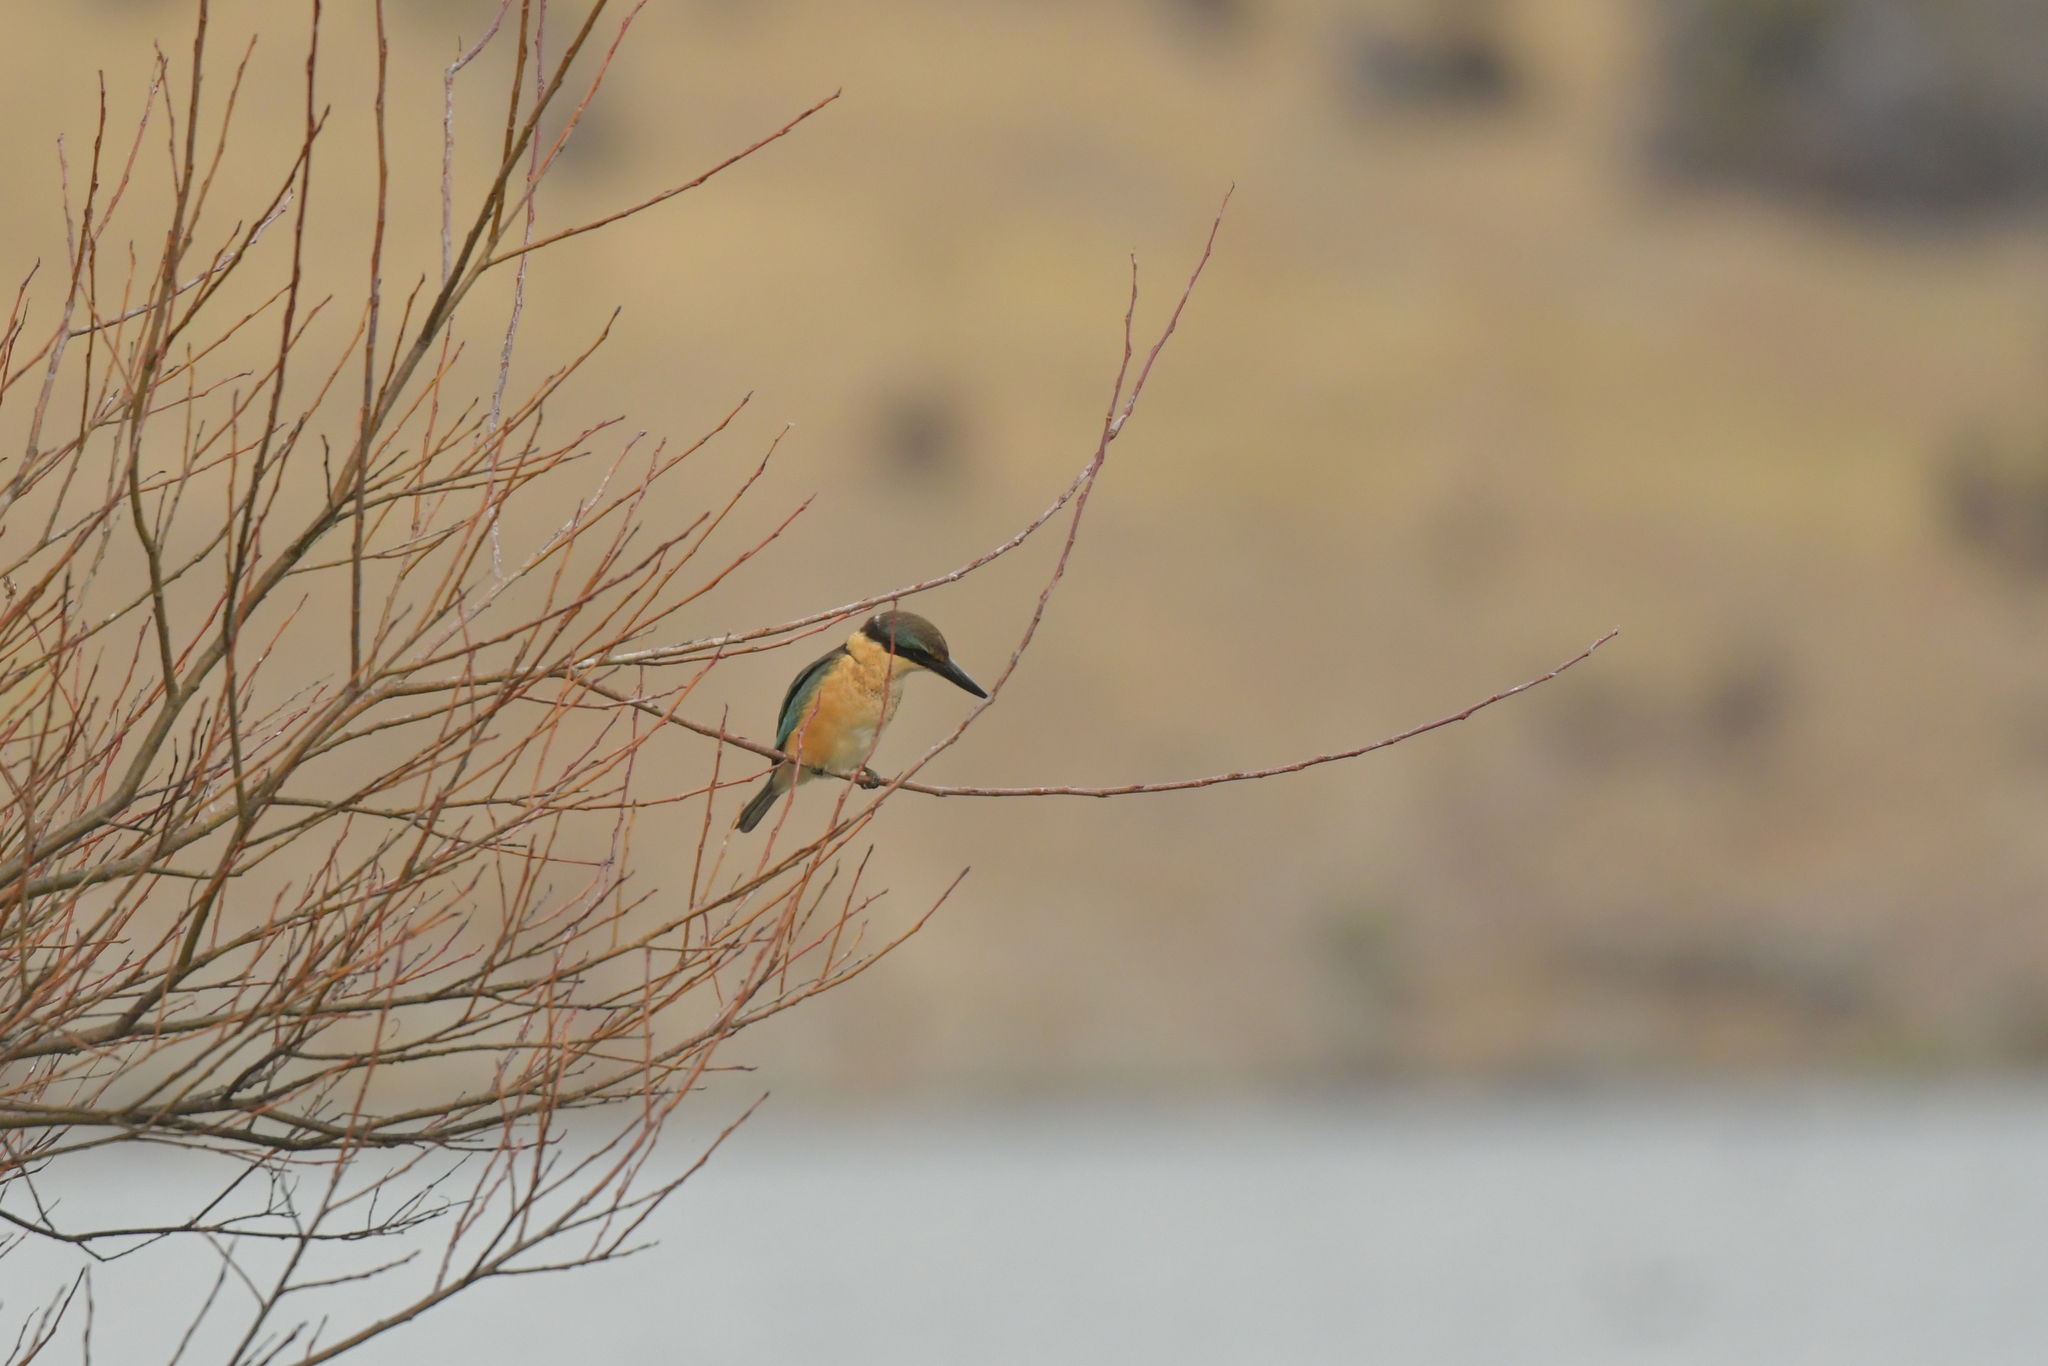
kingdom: Animalia
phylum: Chordata
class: Aves
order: Coraciiformes
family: Alcedinidae
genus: Todiramphus
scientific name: Todiramphus sanctus
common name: Sacred kingfisher
